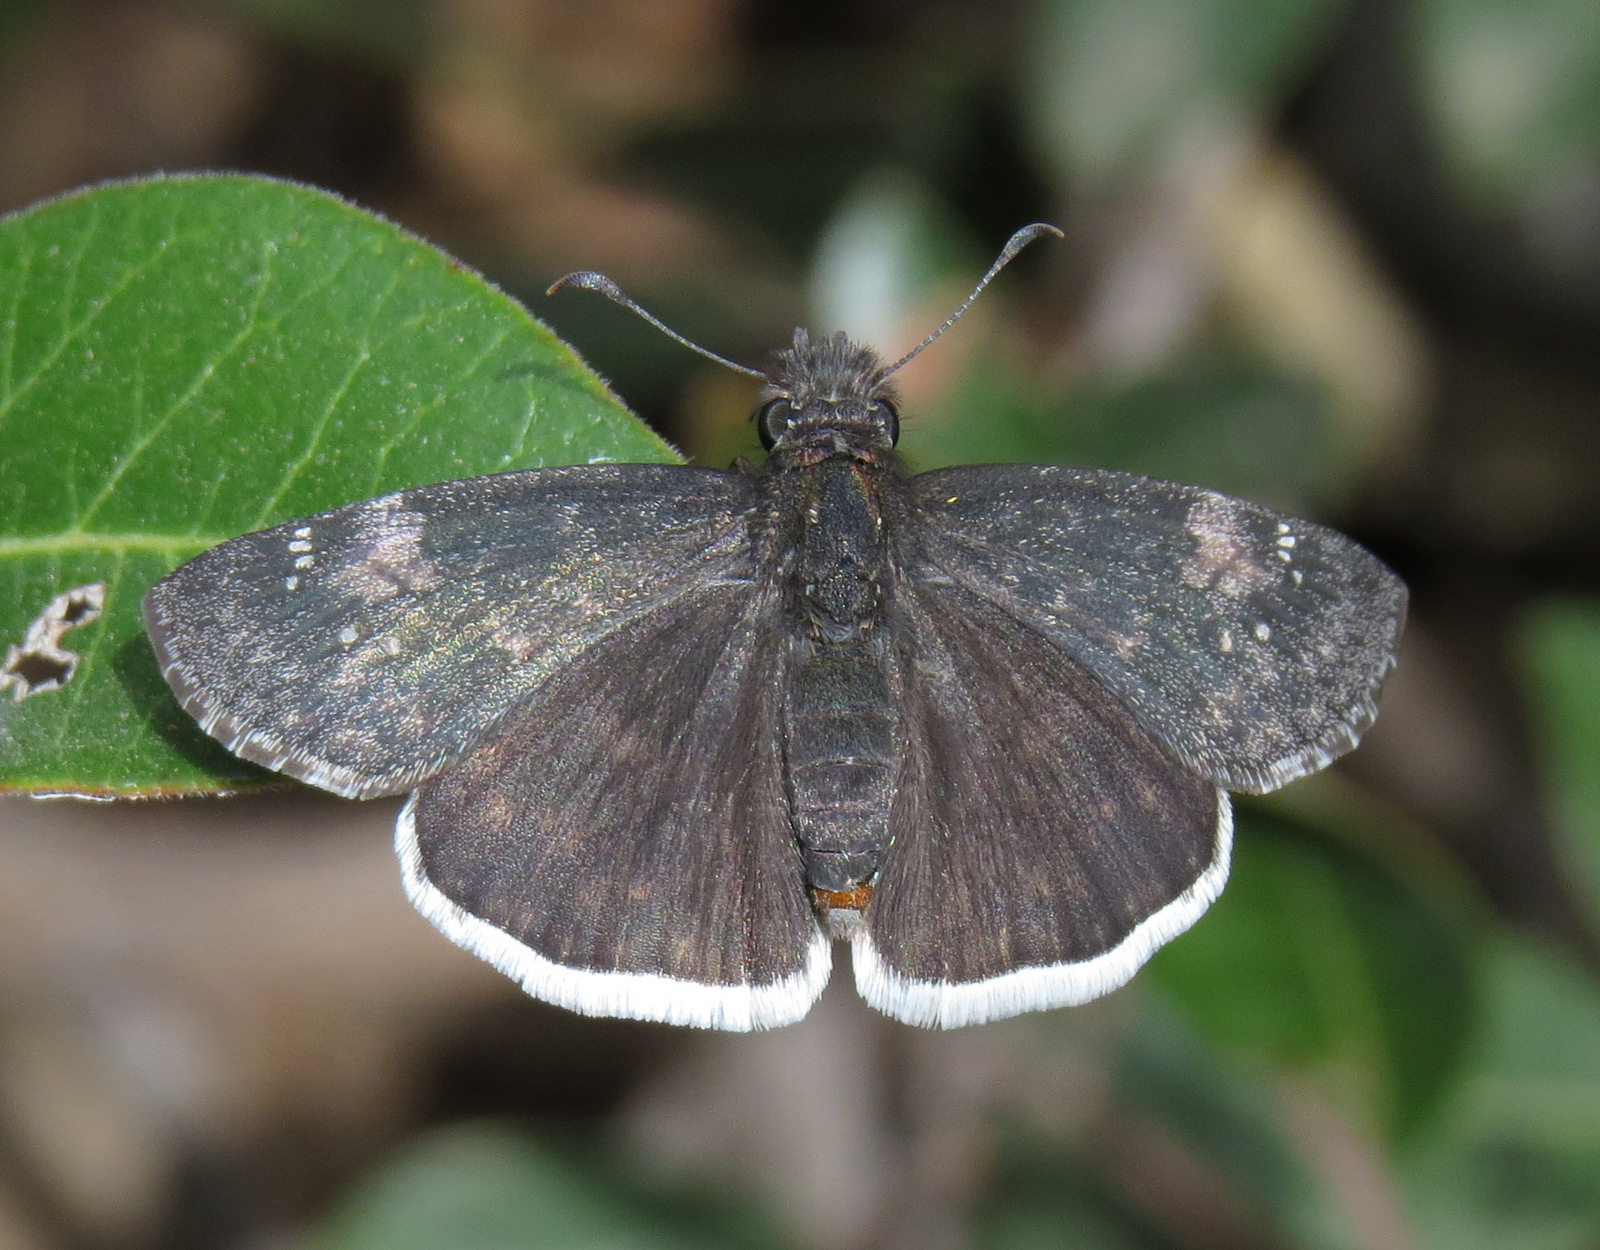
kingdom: Animalia
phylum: Arthropoda
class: Insecta
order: Lepidoptera
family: Hesperiidae
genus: Erynnis
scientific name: Erynnis funeralis
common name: Funereal duskywing
